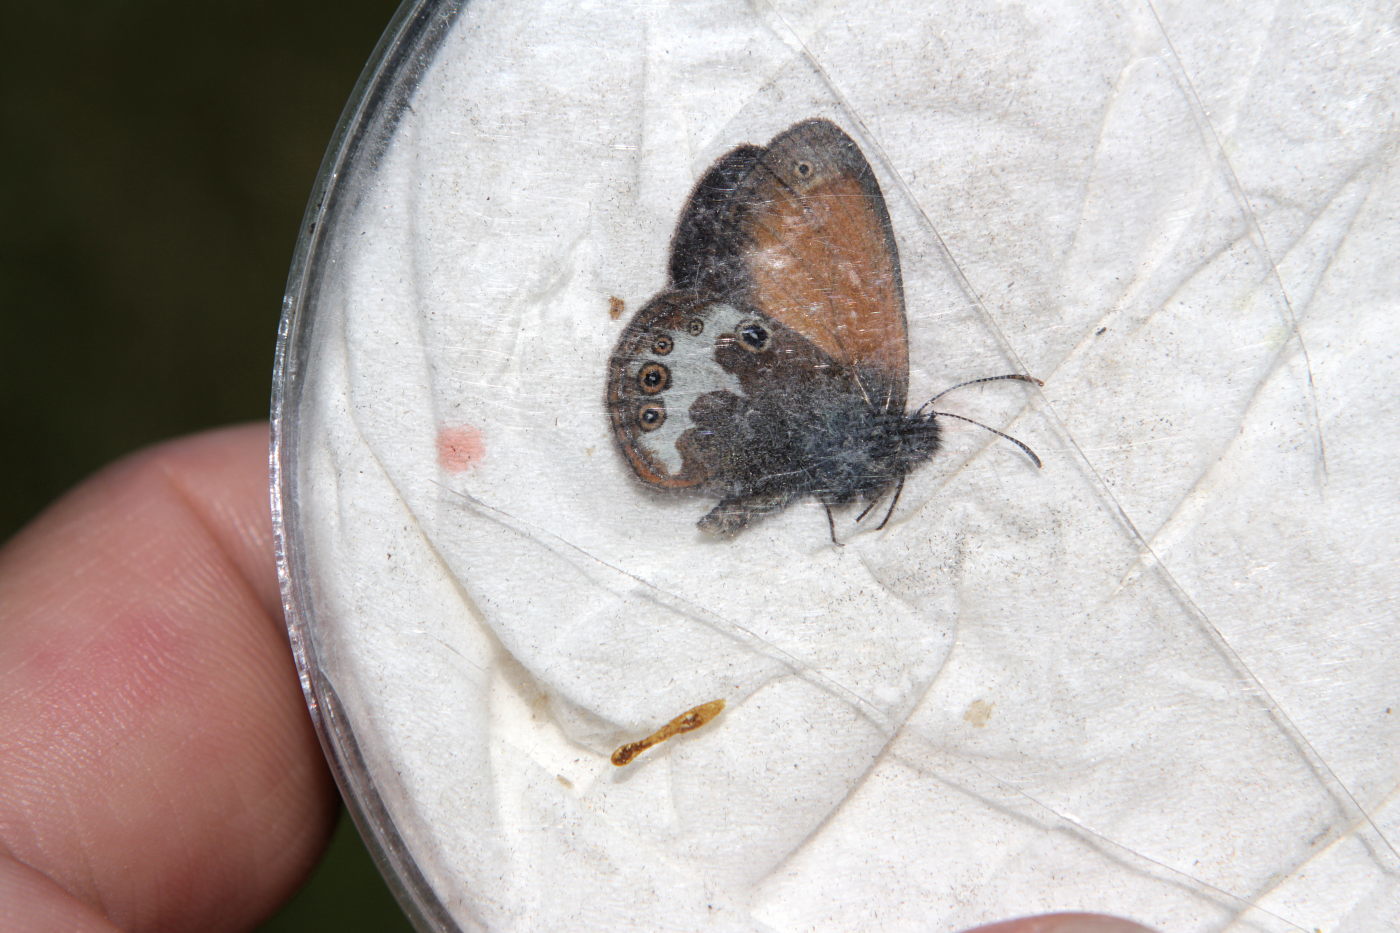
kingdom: Animalia
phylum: Arthropoda
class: Insecta
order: Lepidoptera
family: Nymphalidae
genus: Coenonympha
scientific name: Coenonympha arcania
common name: Pearly heath
